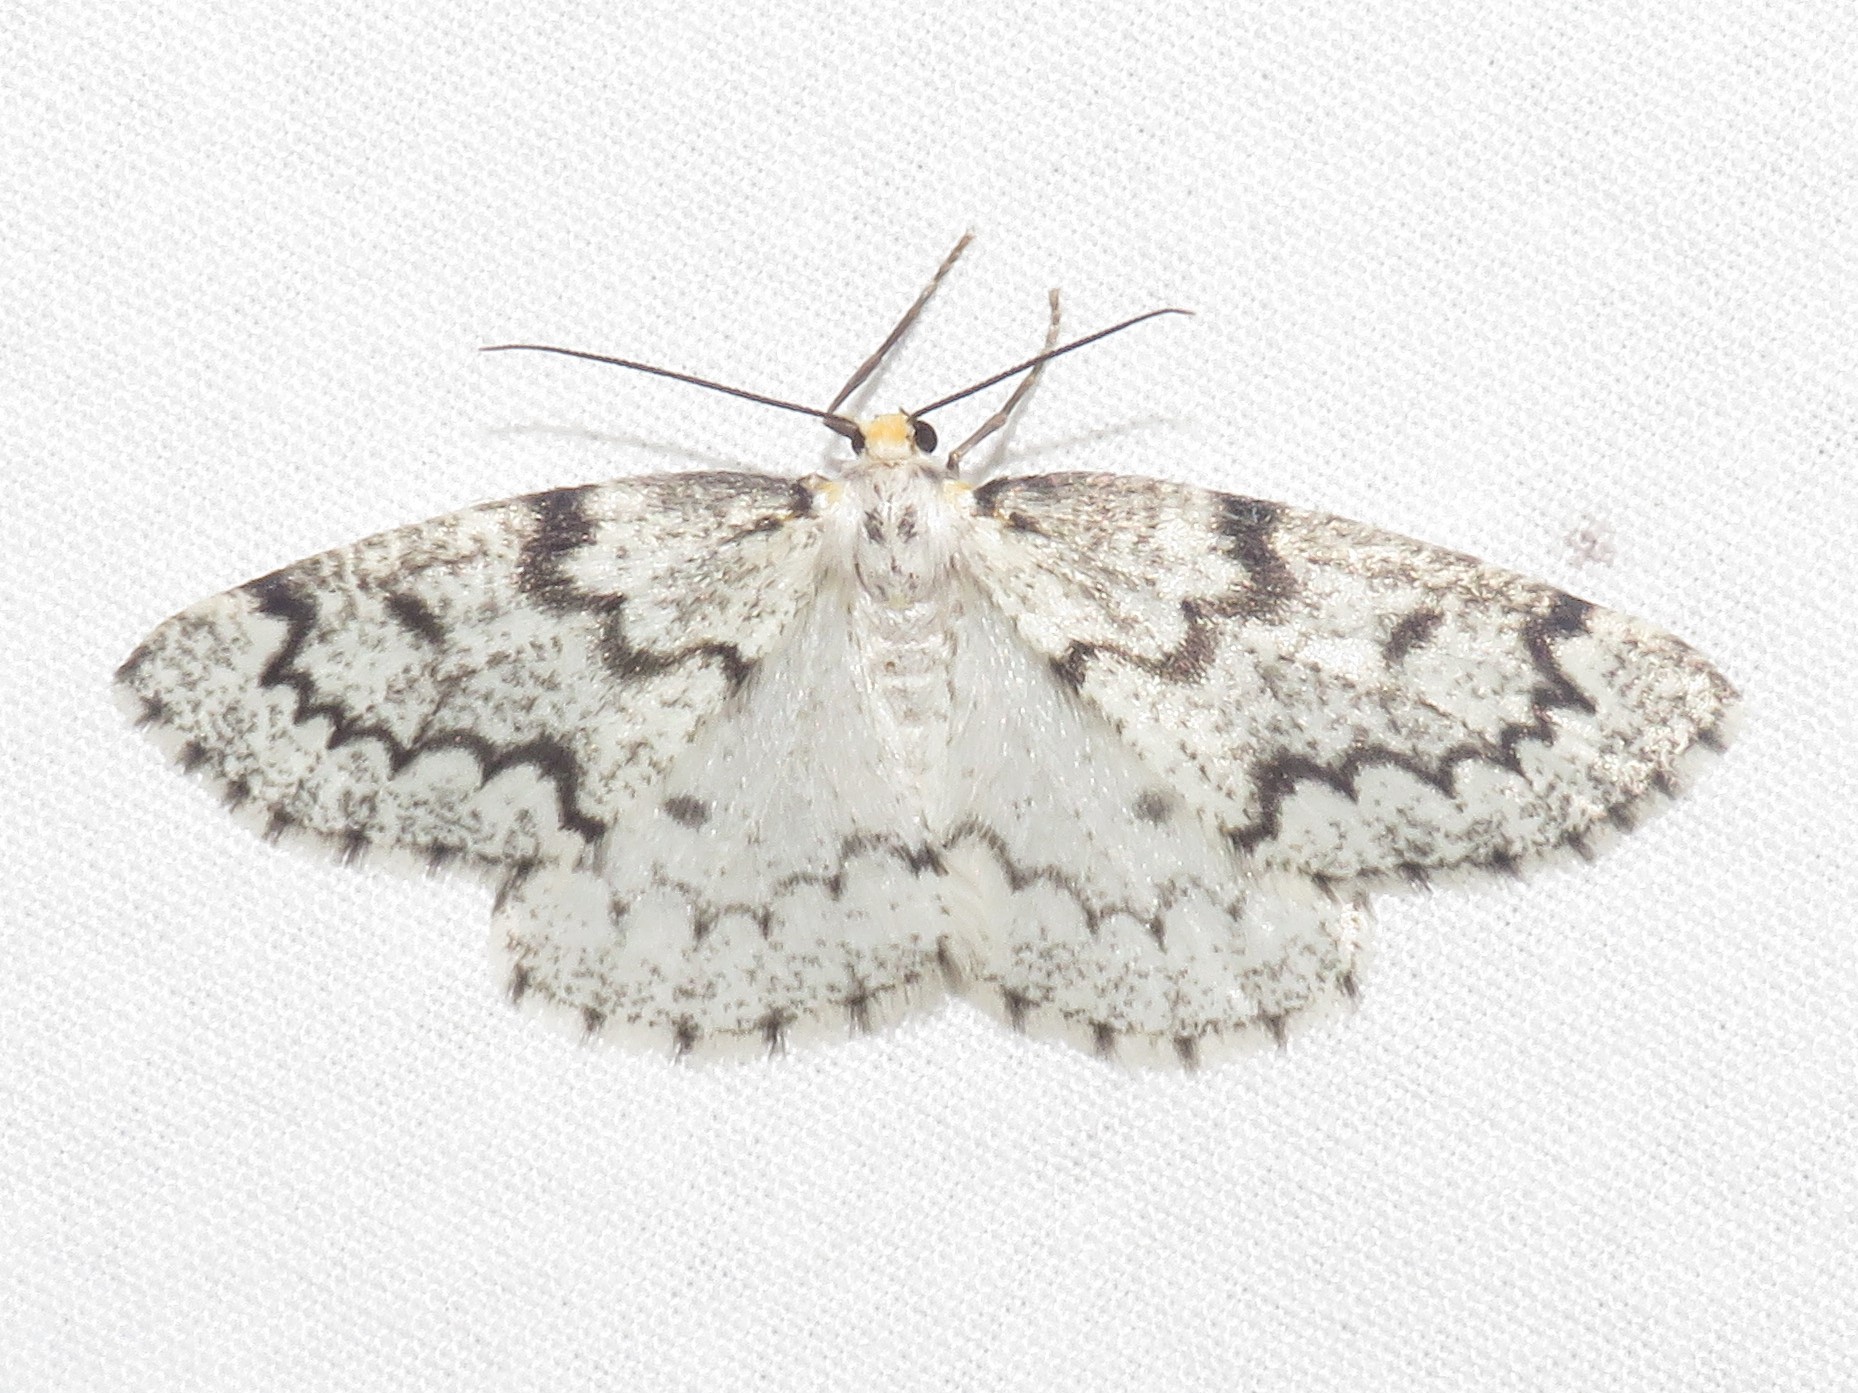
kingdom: Animalia
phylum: Arthropoda
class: Insecta
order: Lepidoptera
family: Geometridae
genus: Nepytia
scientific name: Nepytia canosaria
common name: False hemlock looper
